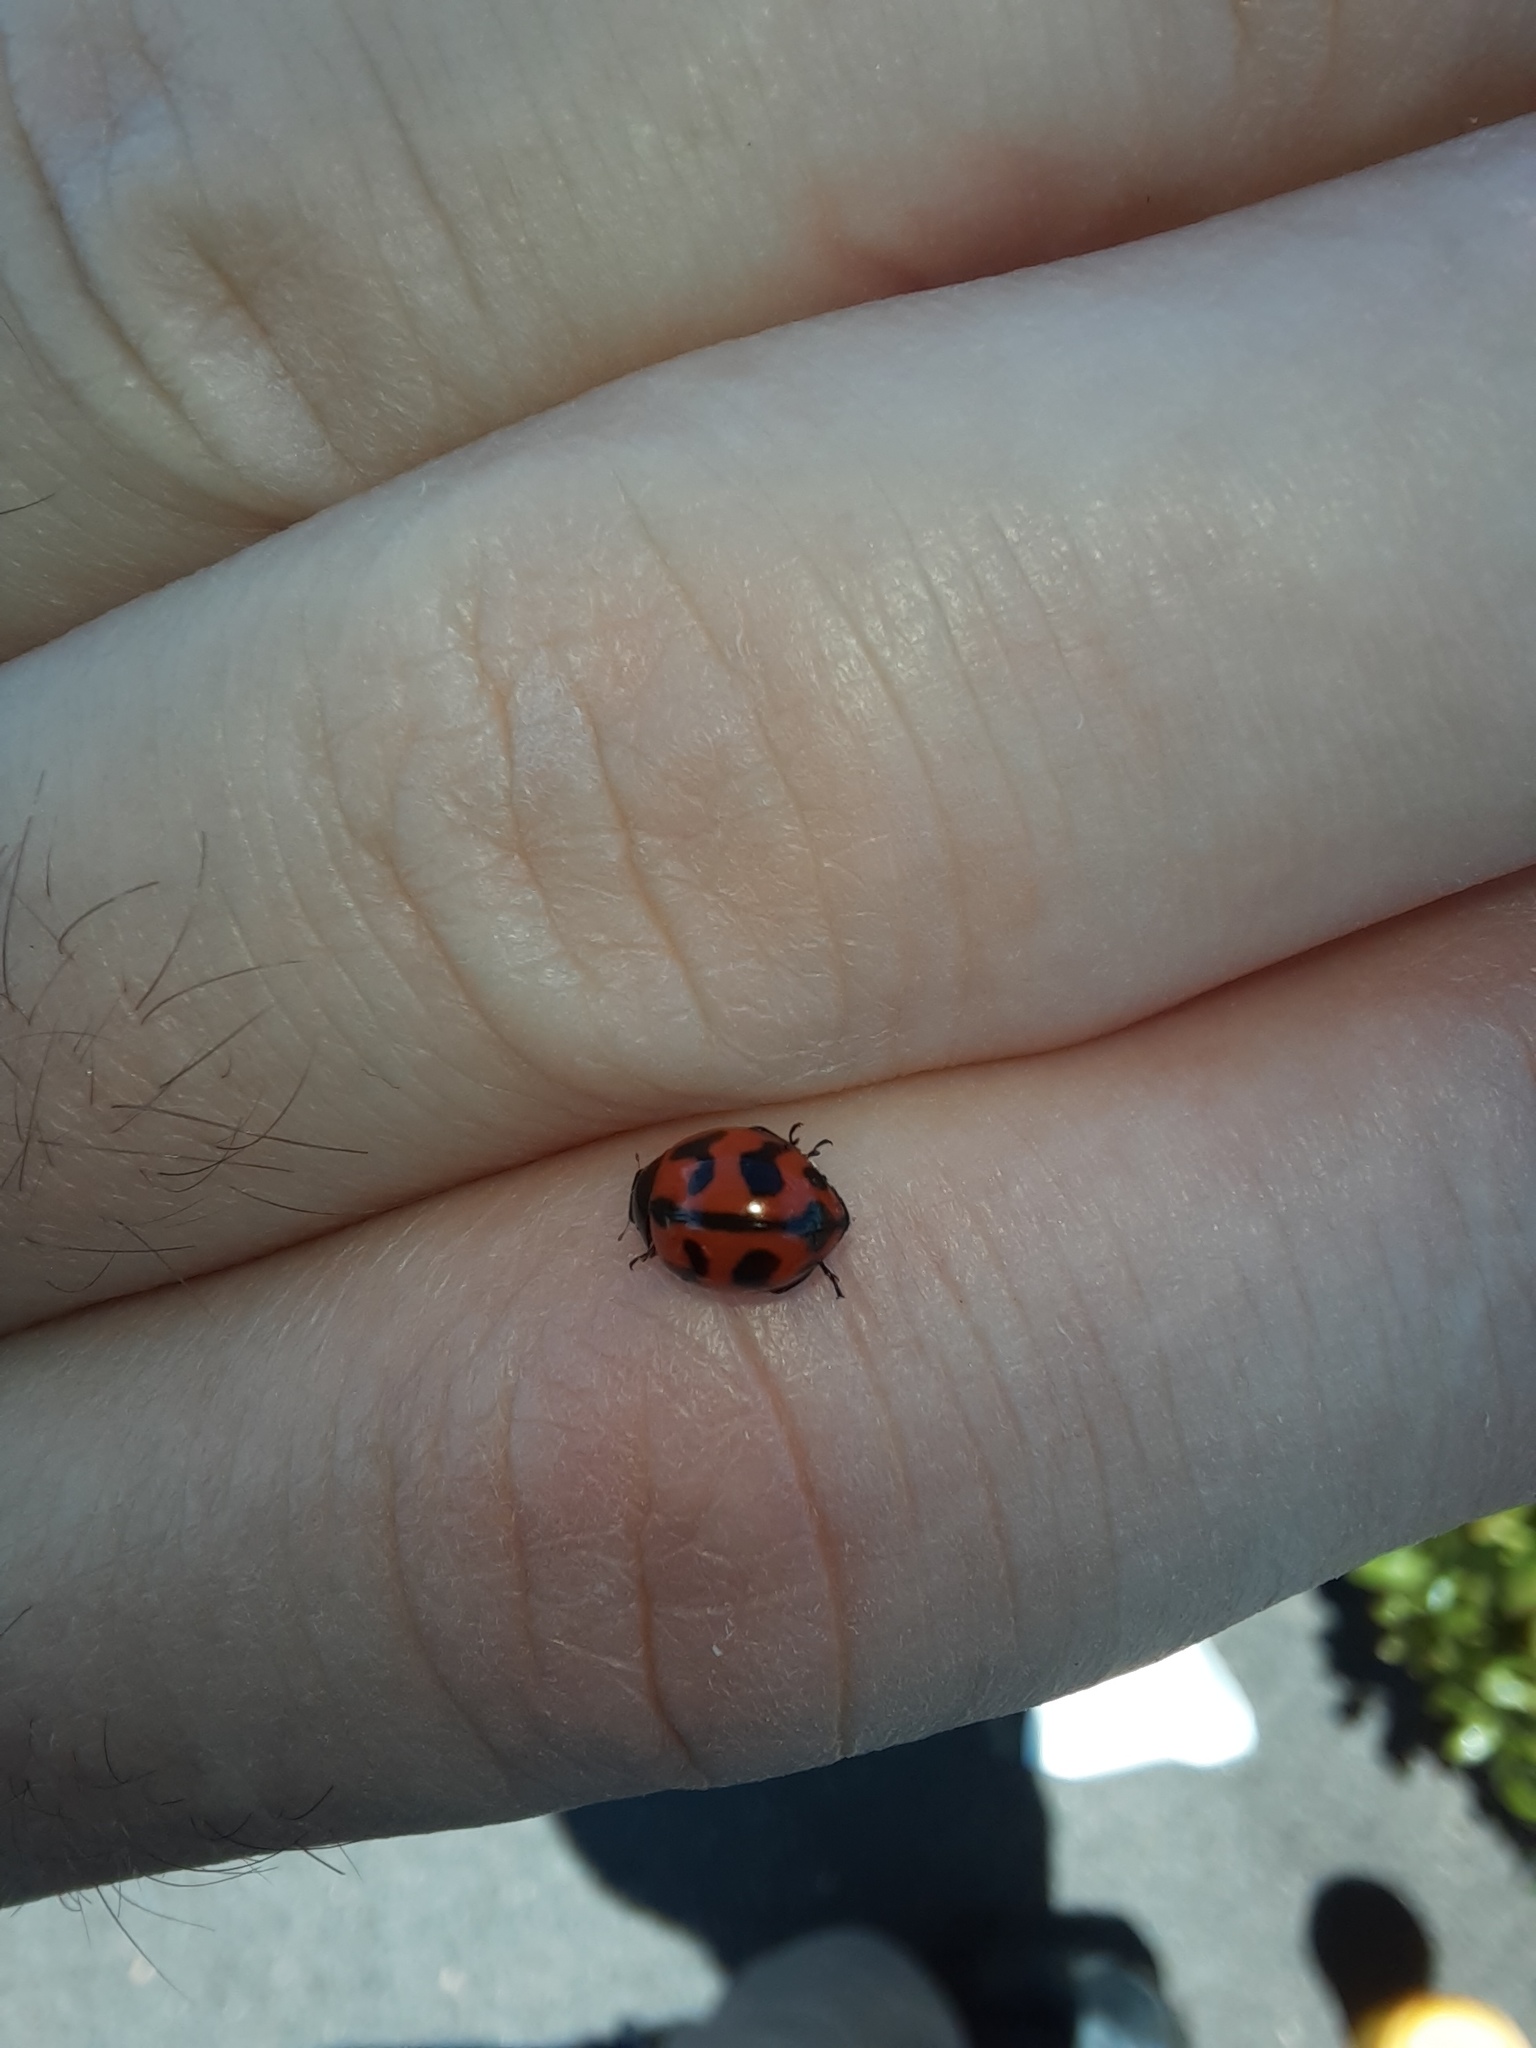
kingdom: Animalia
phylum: Arthropoda
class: Insecta
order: Coleoptera
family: Coccinellidae
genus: Coccinella
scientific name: Coccinella transversalis
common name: Transverse lady beetle
